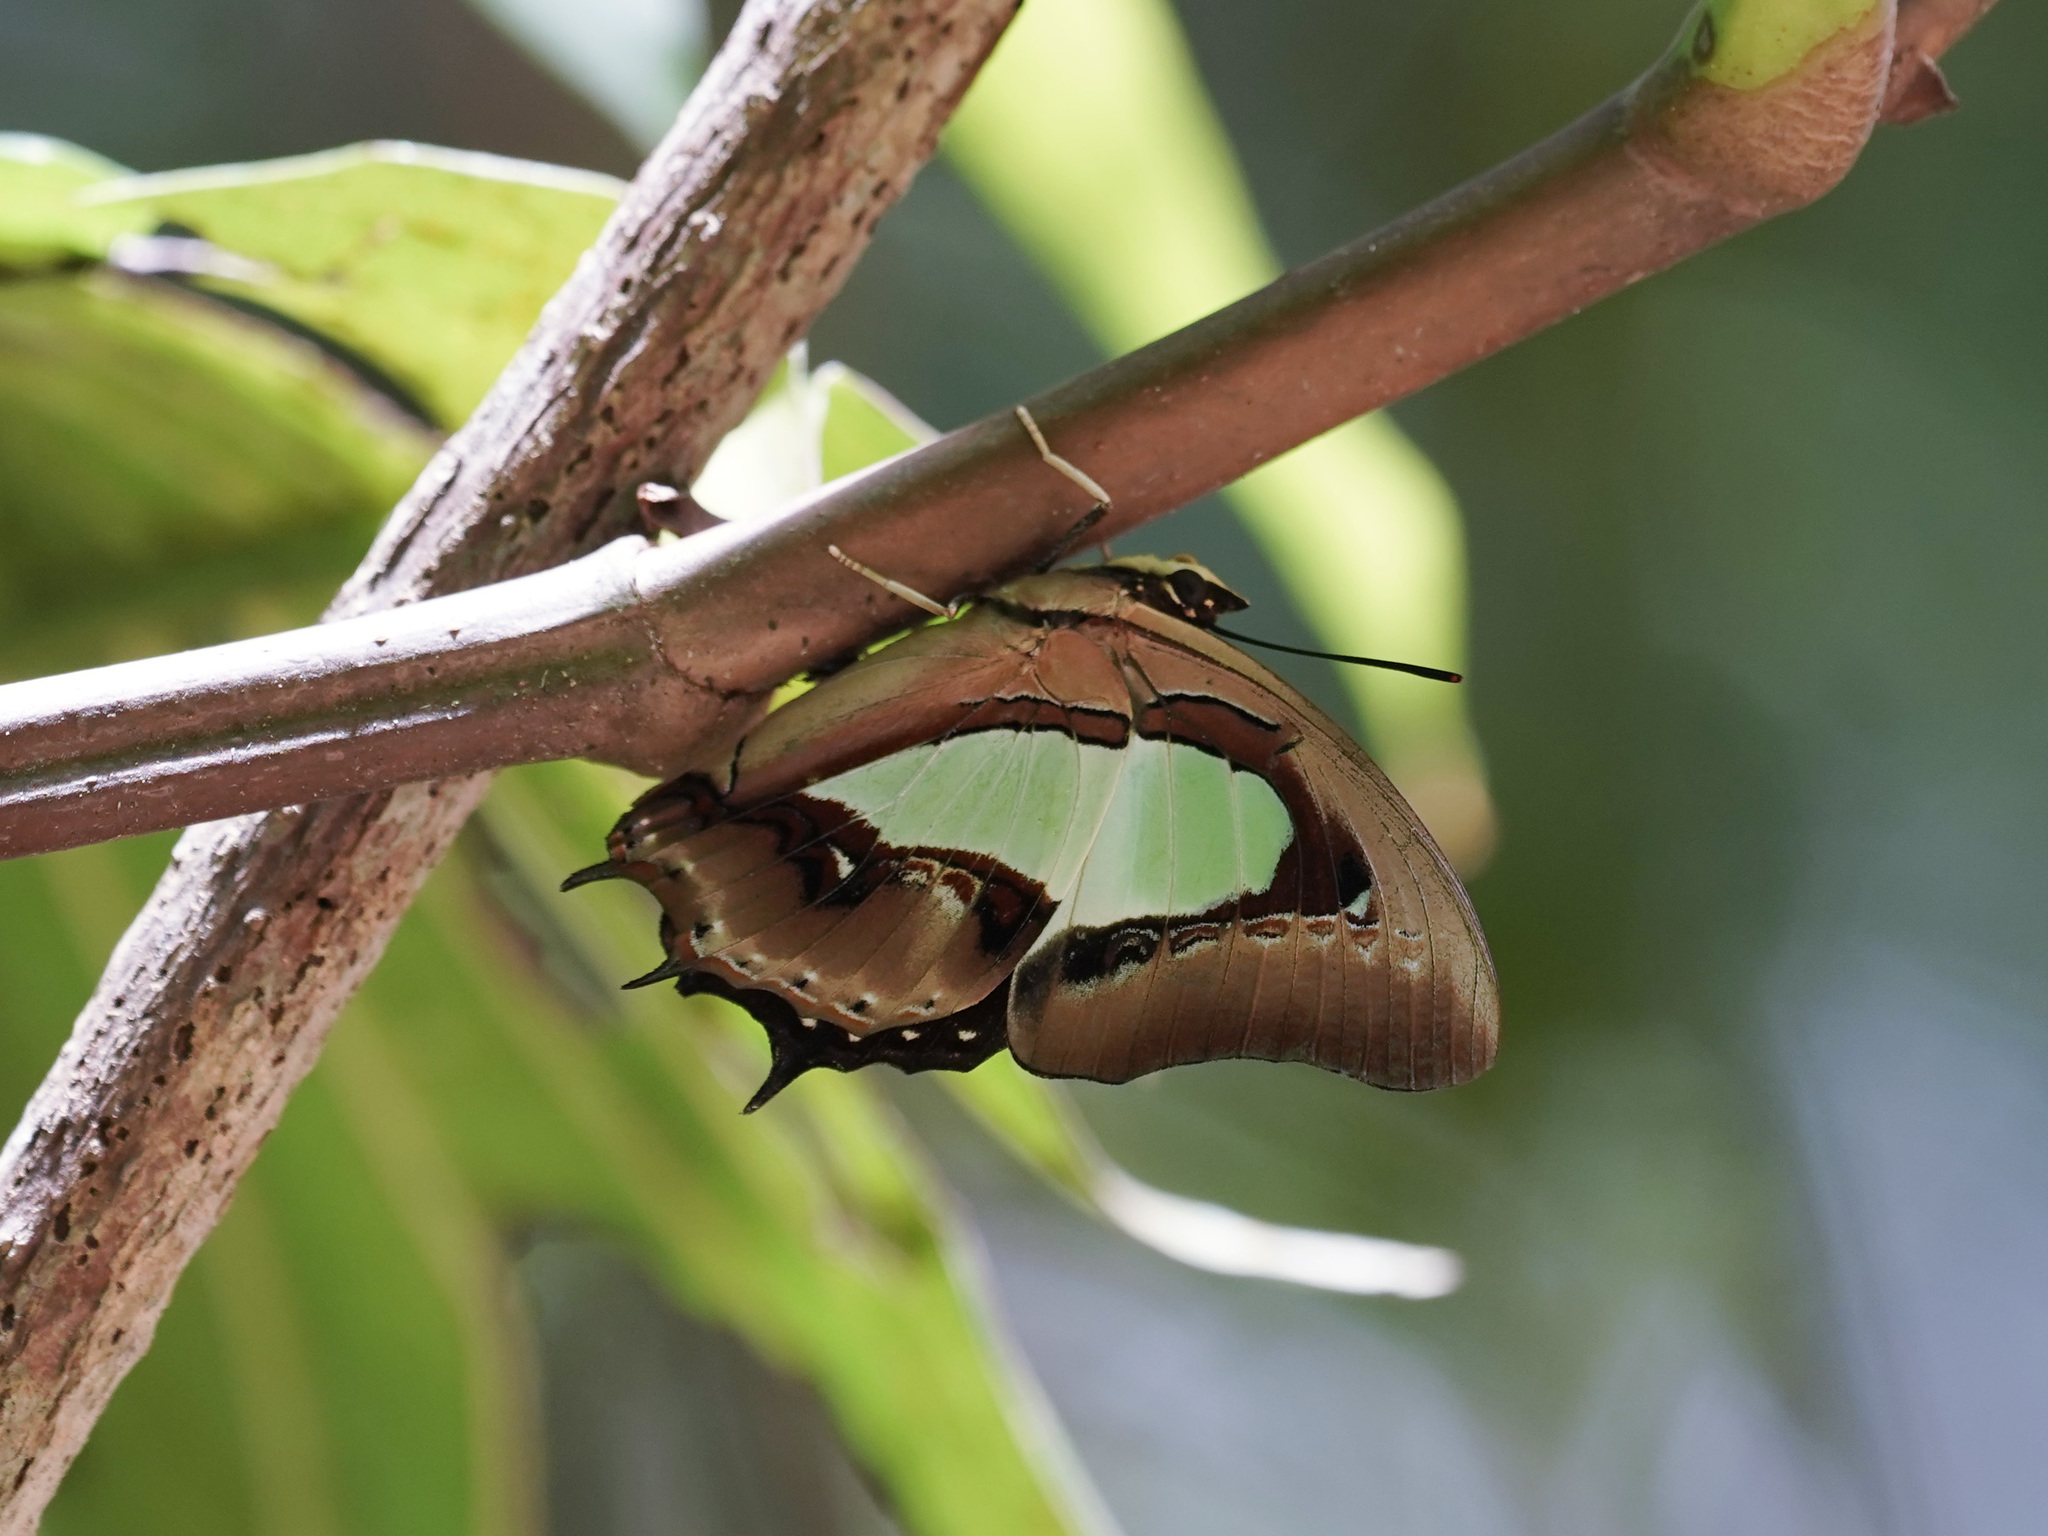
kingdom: Animalia
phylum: Arthropoda
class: Insecta
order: Lepidoptera
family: Nymphalidae
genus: Polyura
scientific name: Polyura hebe
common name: Plain nawab
